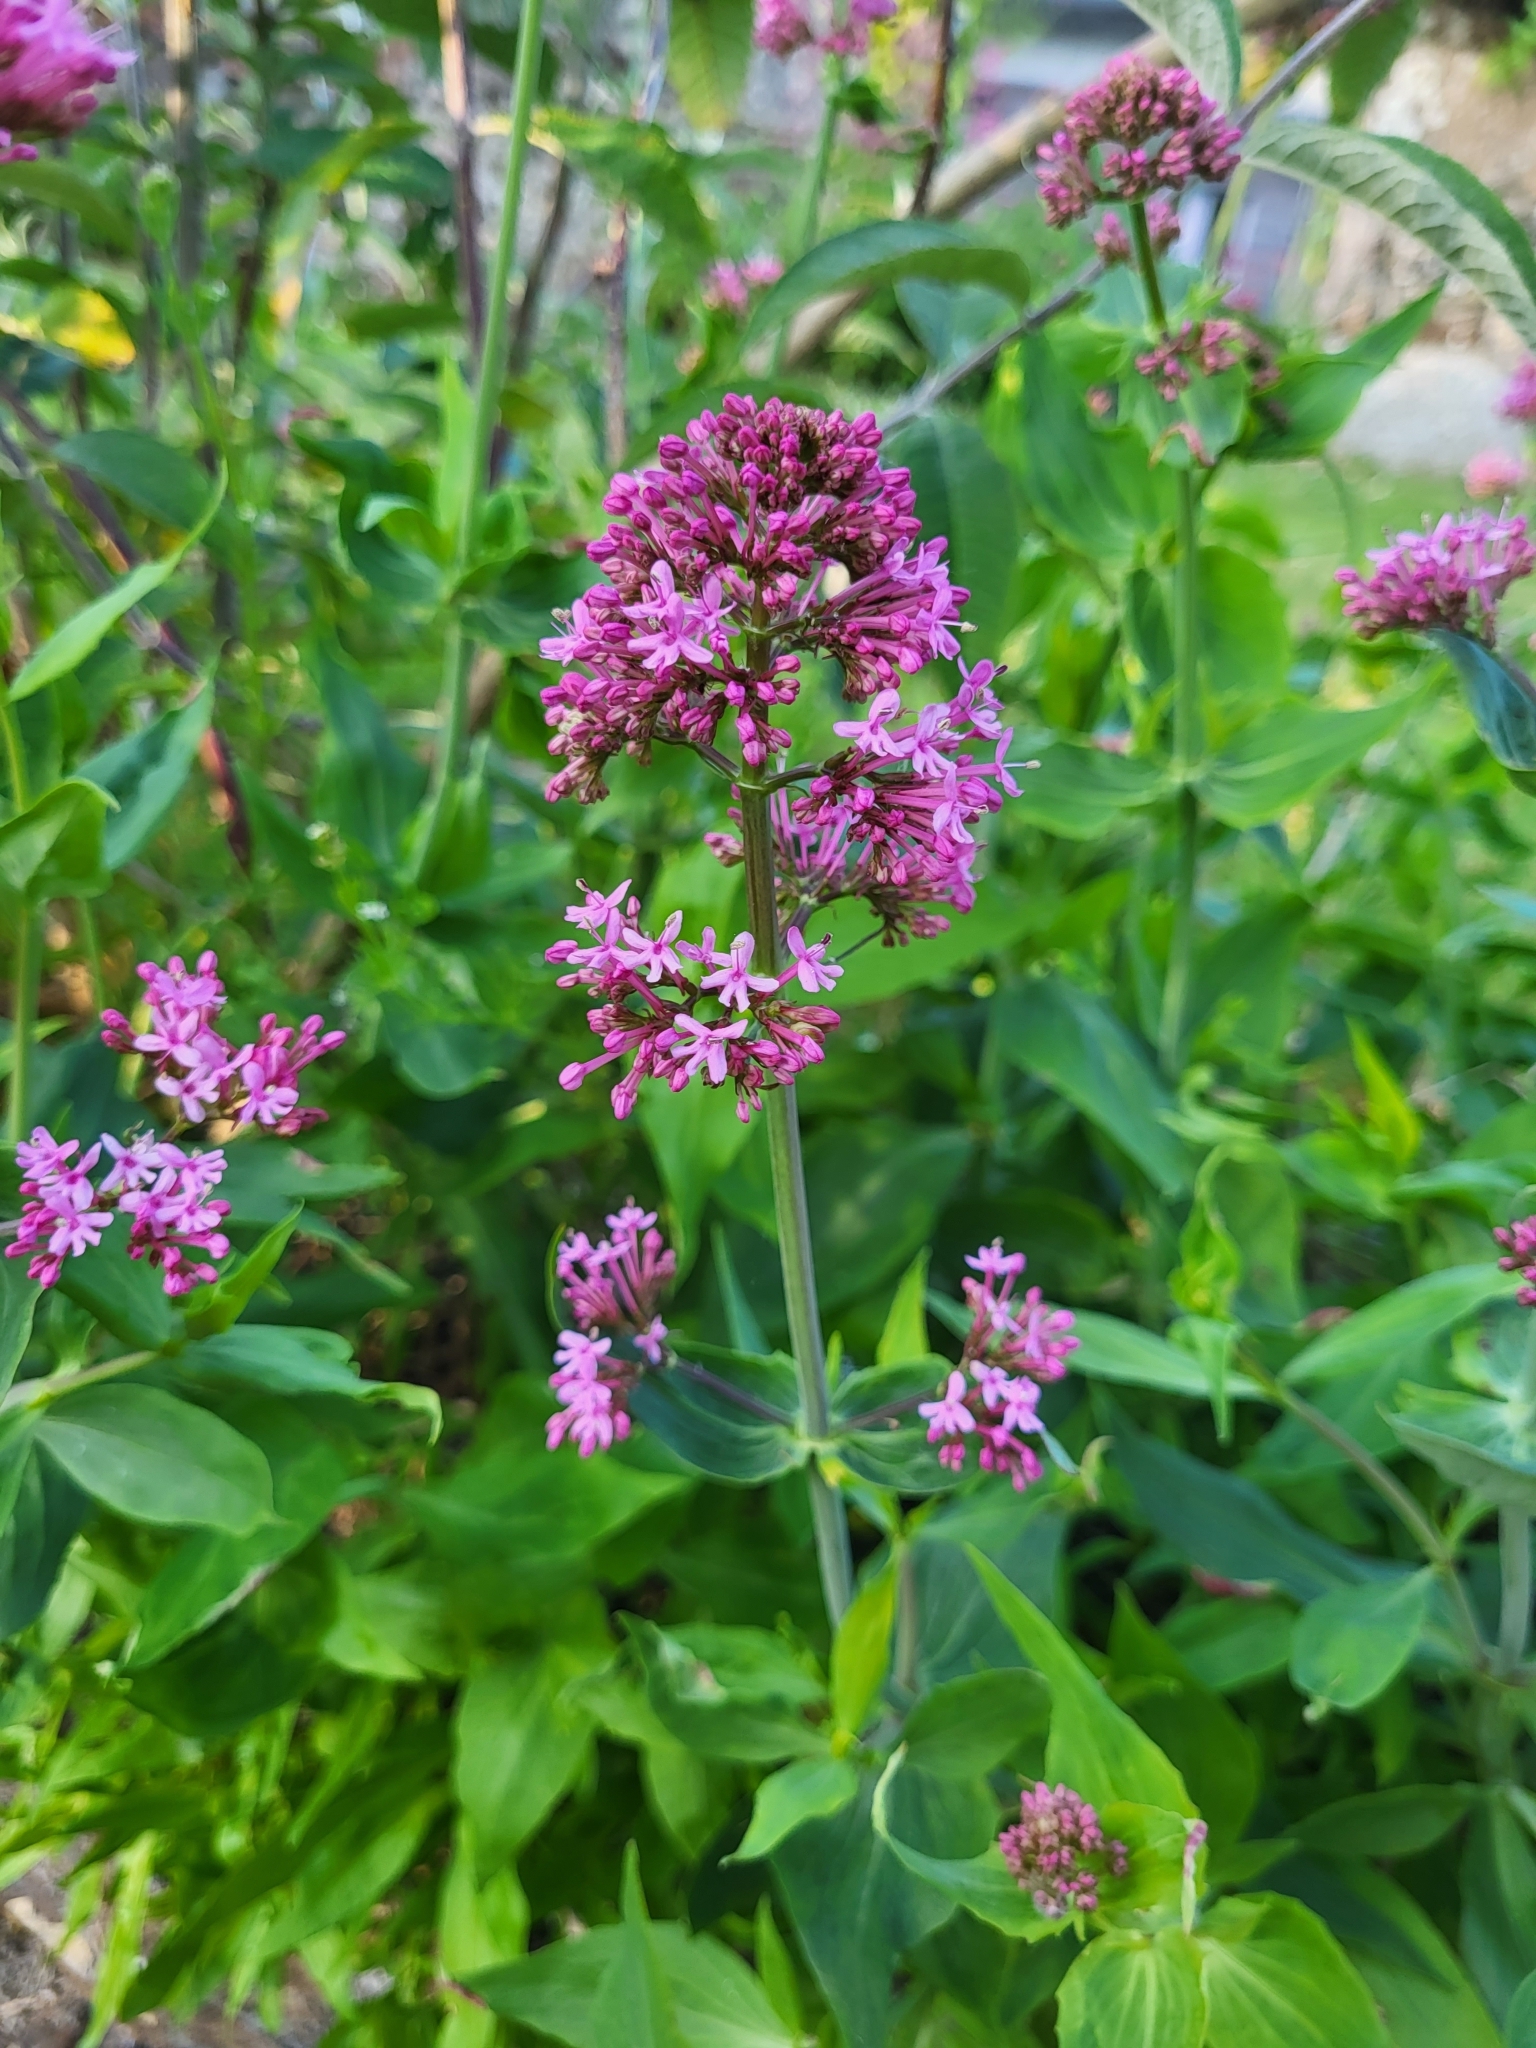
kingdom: Plantae
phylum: Tracheophyta
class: Magnoliopsida
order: Dipsacales
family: Caprifoliaceae
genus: Centranthus
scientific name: Centranthus ruber
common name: Red valerian
